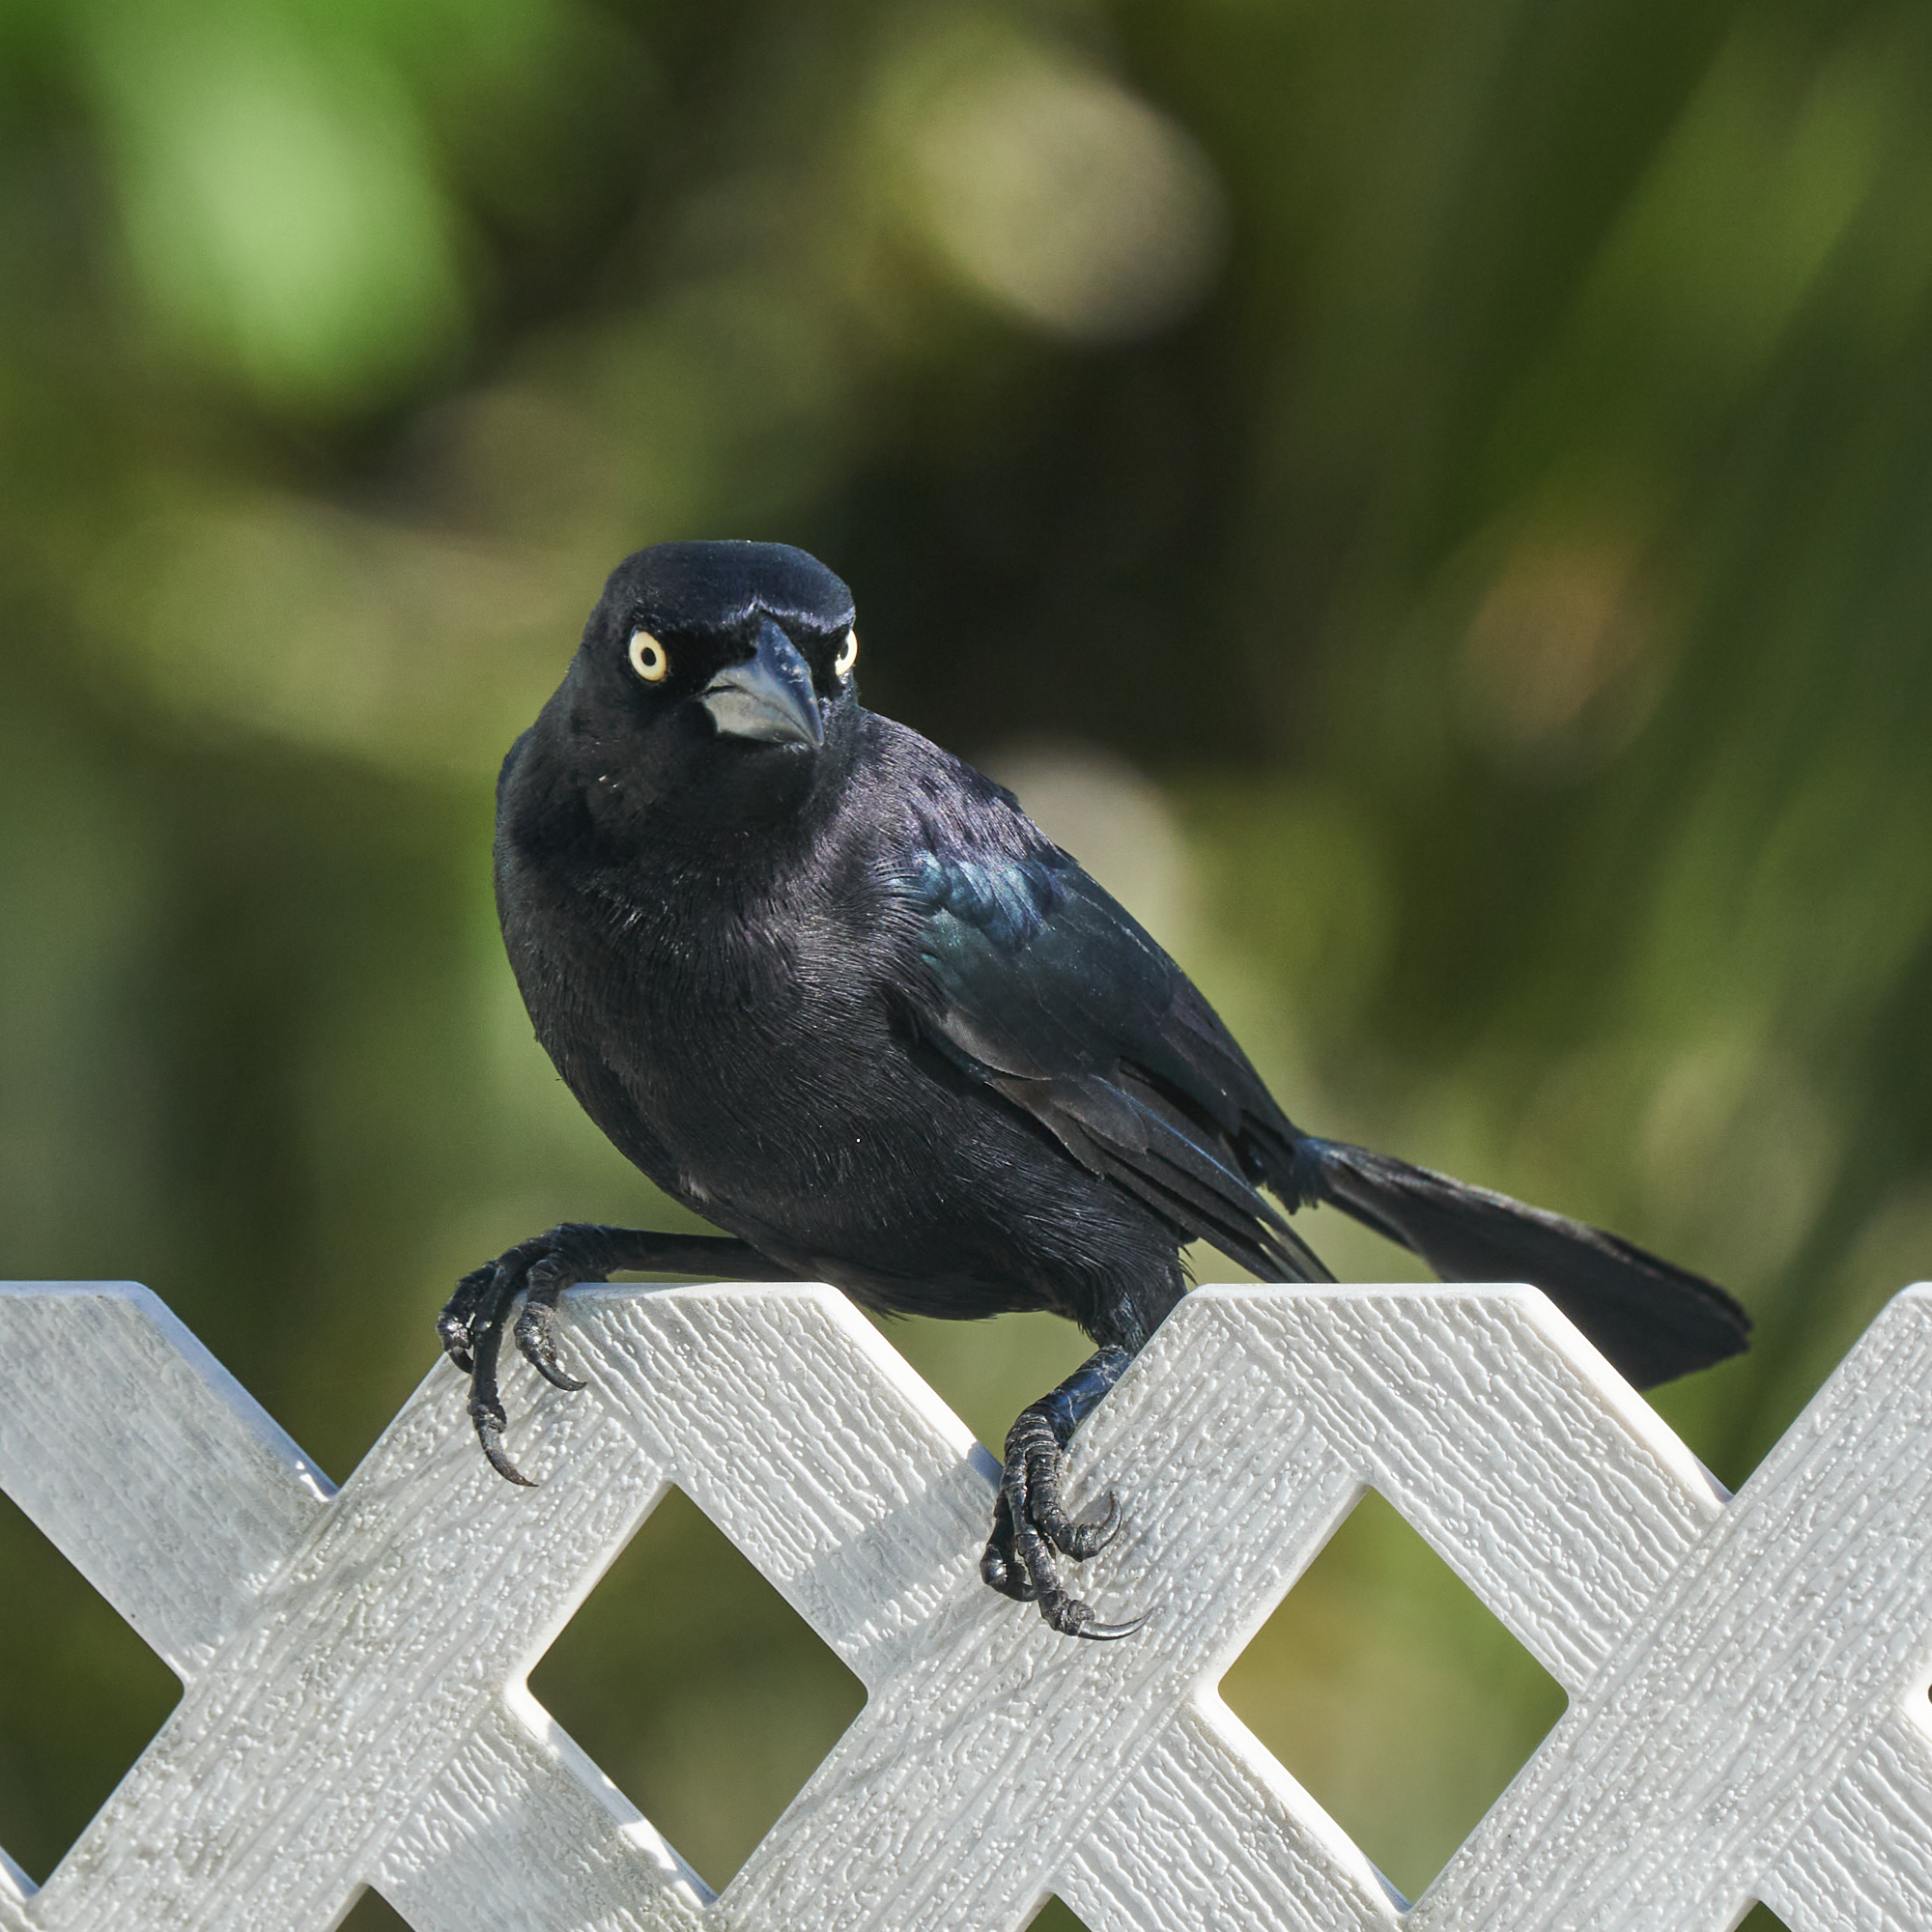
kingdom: Animalia
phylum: Chordata
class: Aves
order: Passeriformes
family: Icteridae
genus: Quiscalus
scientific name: Quiscalus lugubris
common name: Carib grackle
